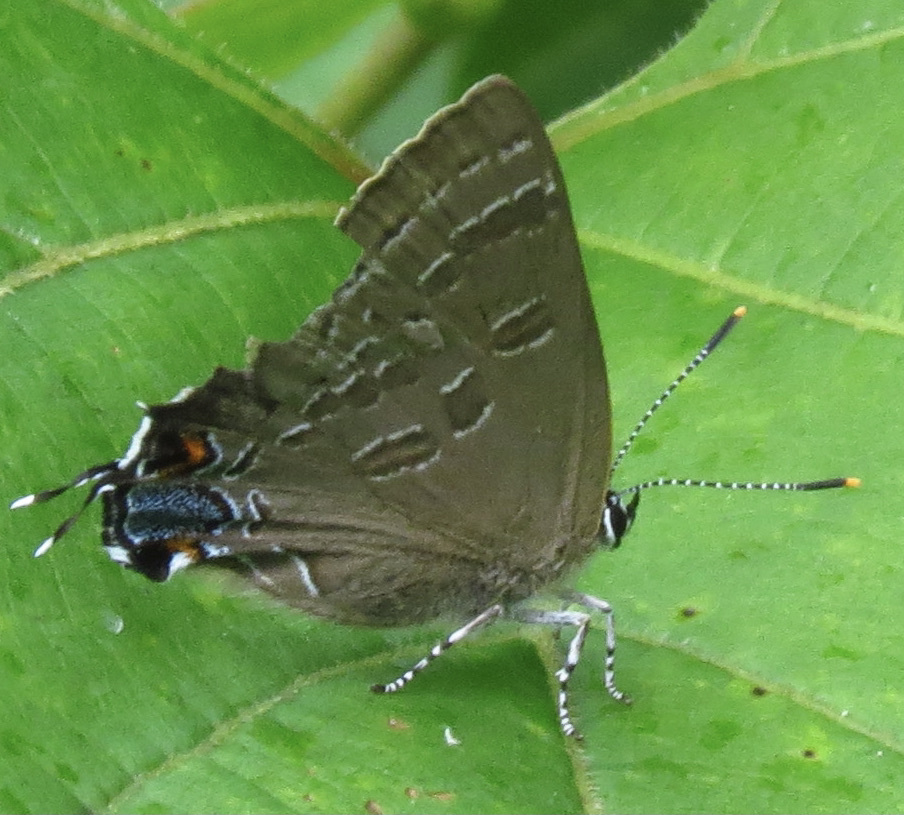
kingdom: Animalia
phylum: Arthropoda
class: Insecta
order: Lepidoptera
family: Lycaenidae
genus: Strymon
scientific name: Strymon caryaevorus
